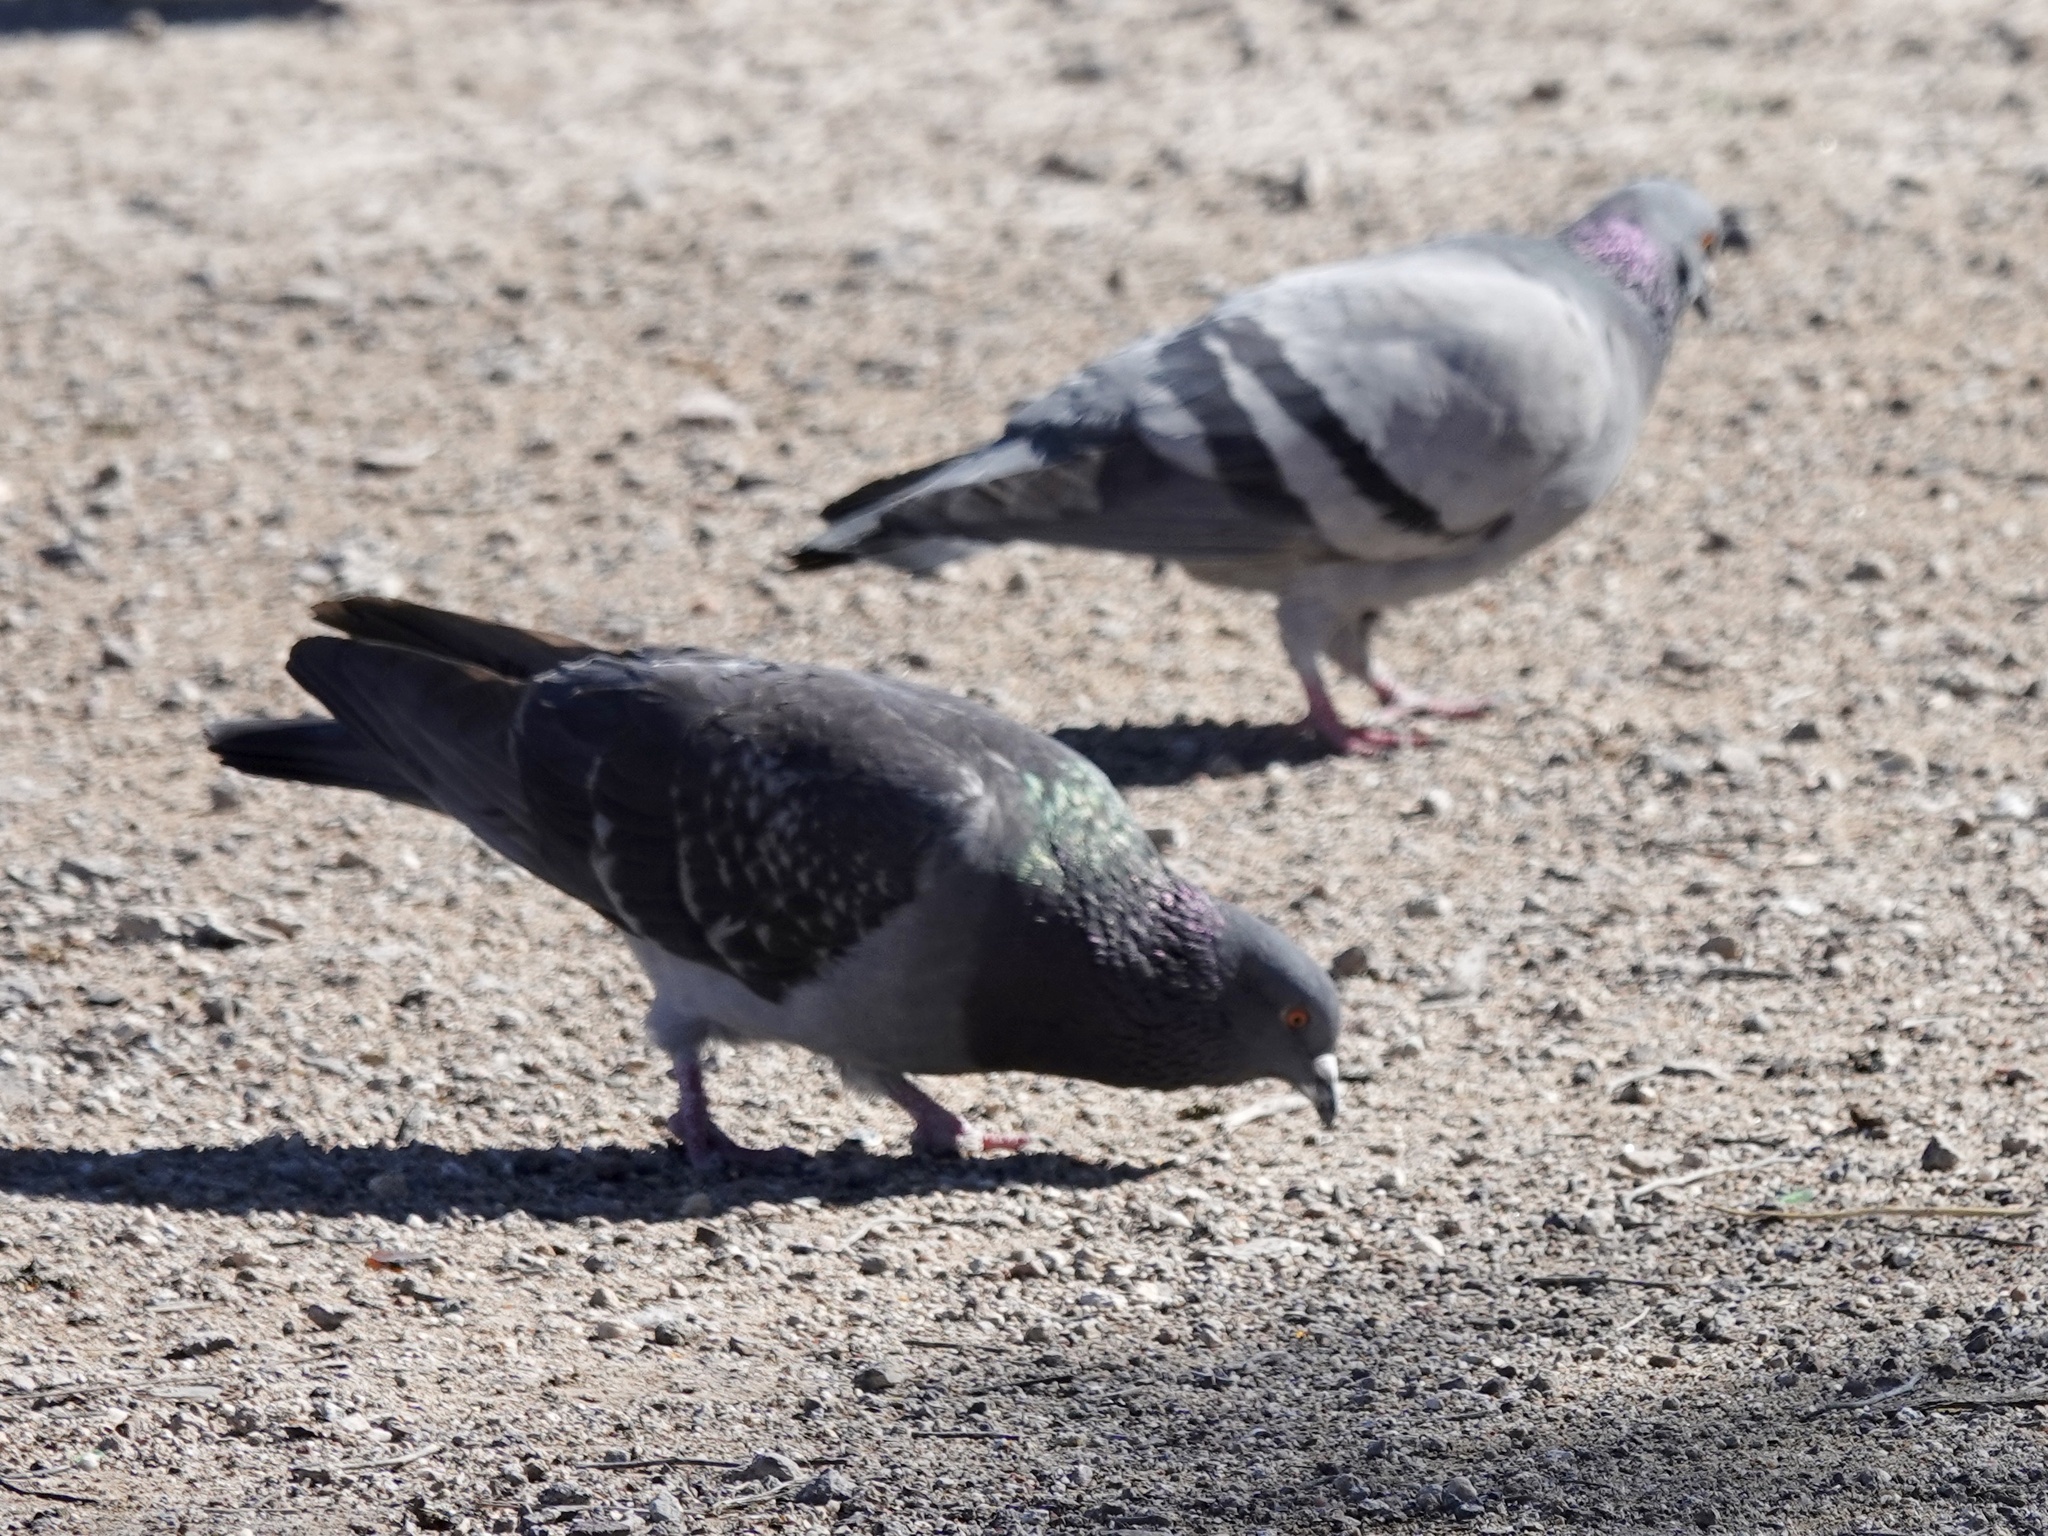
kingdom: Animalia
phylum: Chordata
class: Aves
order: Columbiformes
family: Columbidae
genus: Columba
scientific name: Columba livia
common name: Rock pigeon
